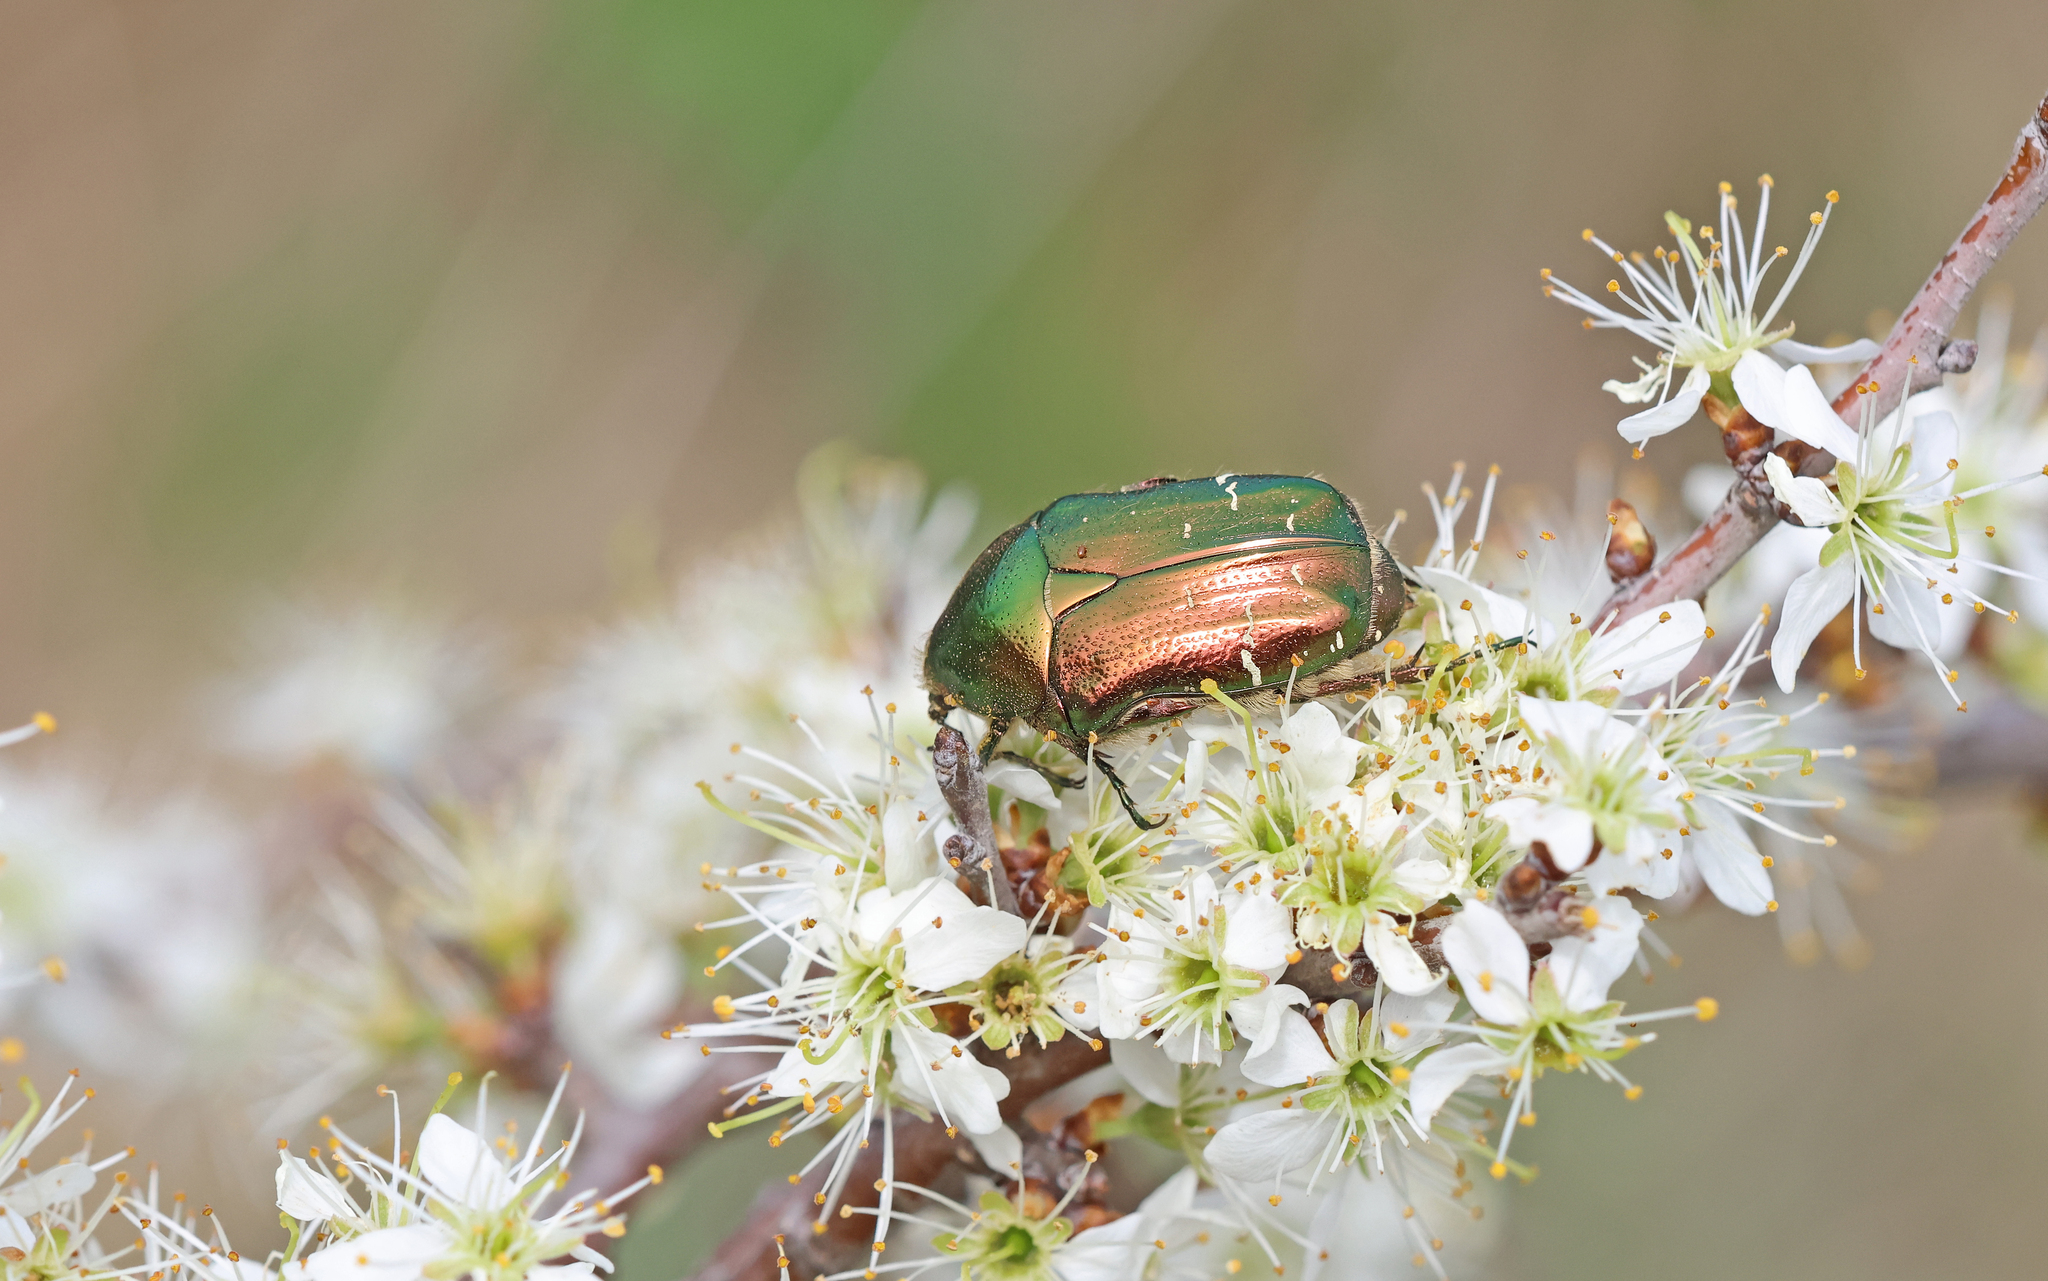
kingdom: Animalia
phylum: Arthropoda
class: Insecta
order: Coleoptera
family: Scarabaeidae
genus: Cetonia
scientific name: Cetonia aurata
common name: Rose chafer
